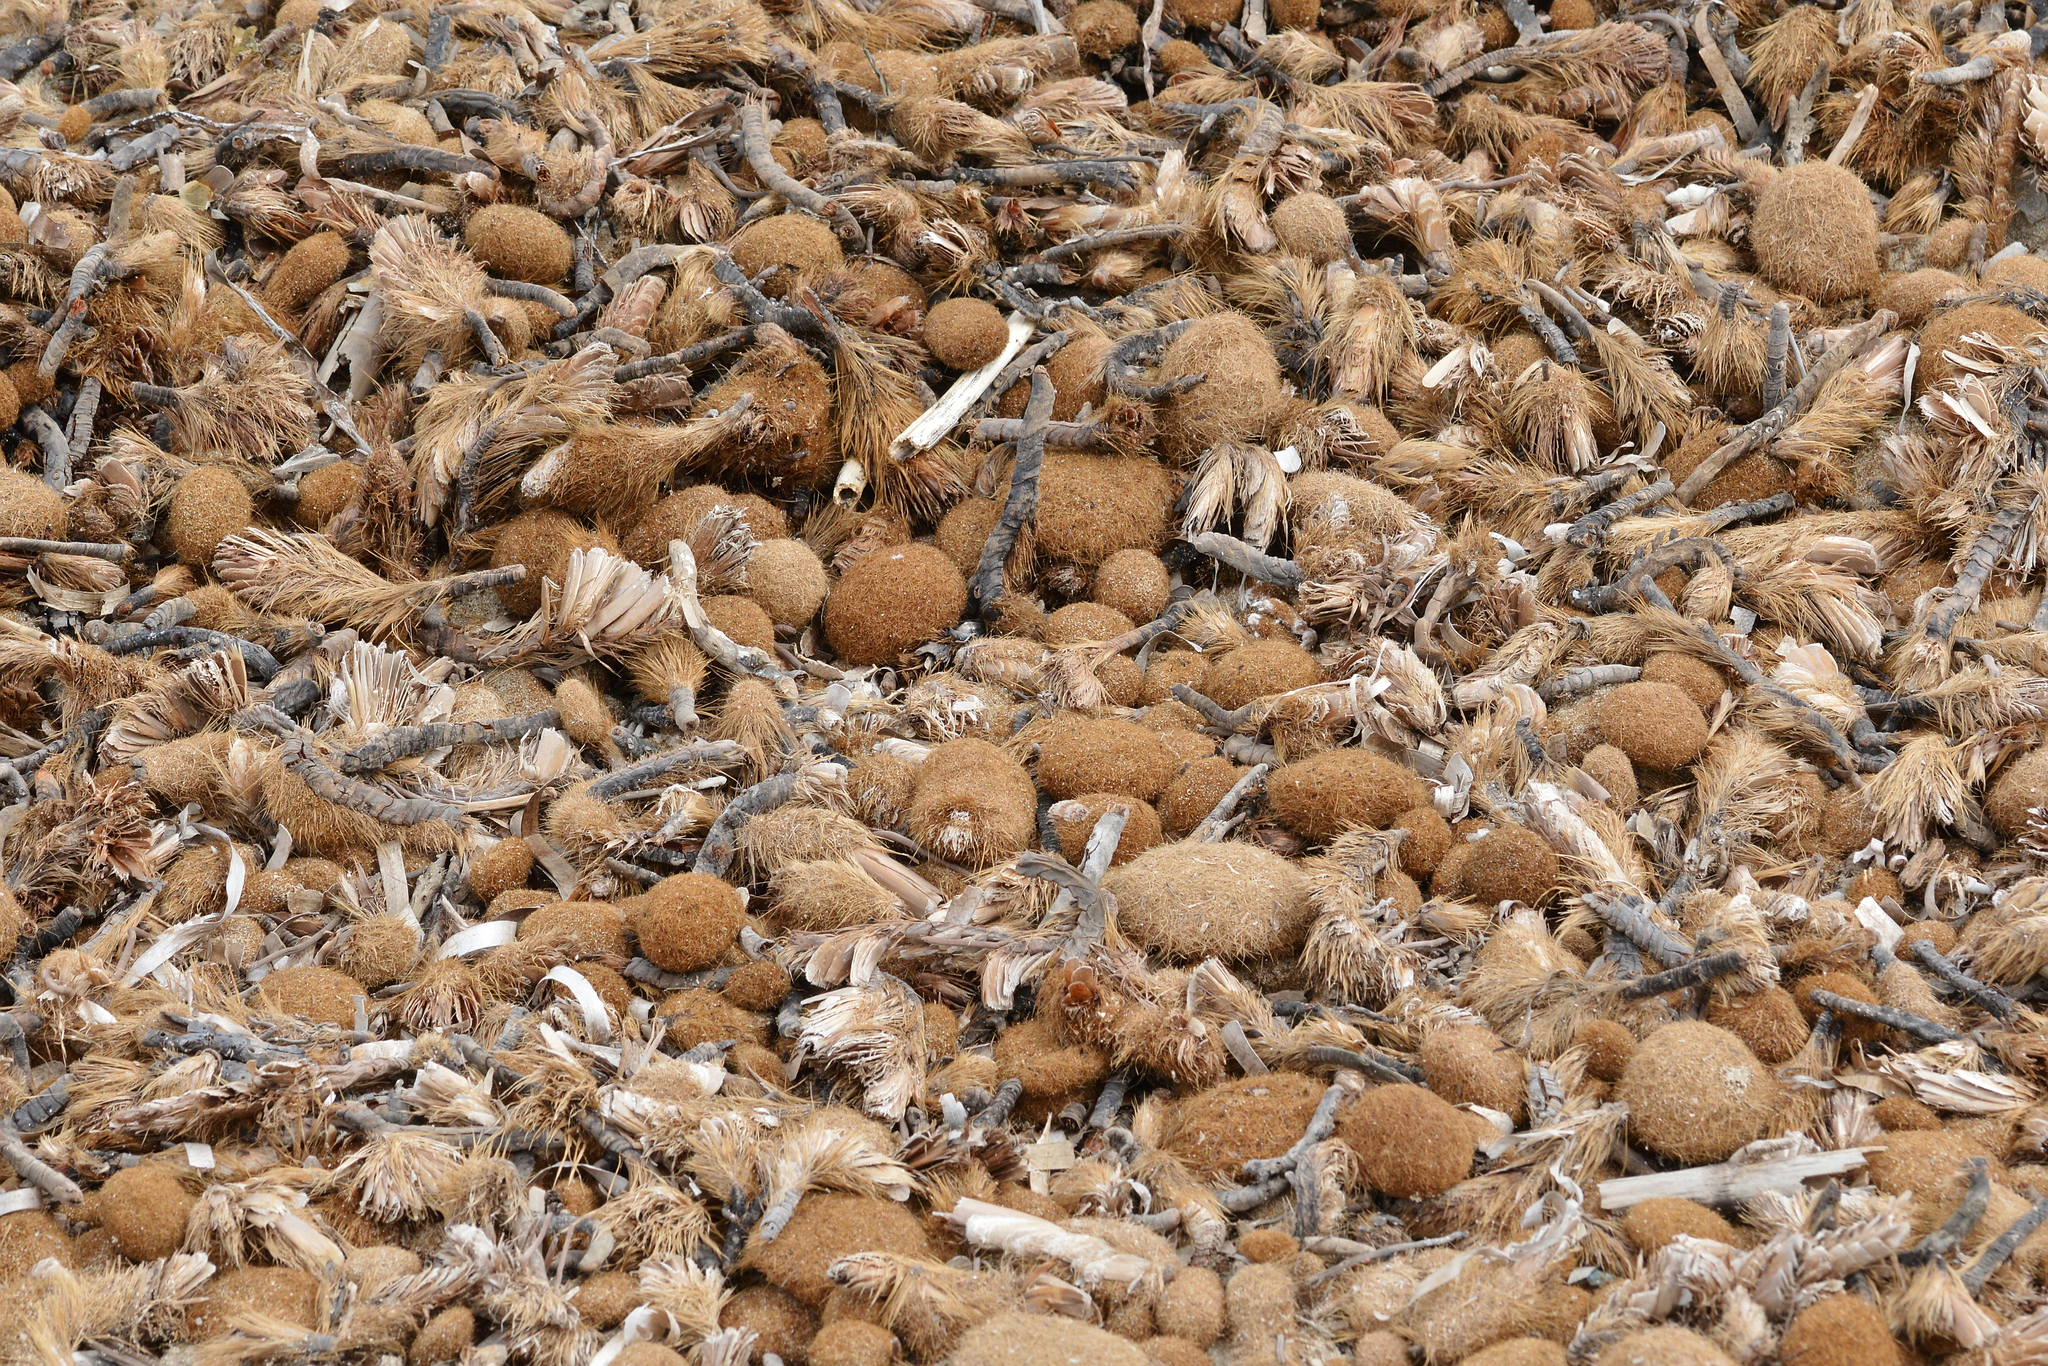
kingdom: Plantae
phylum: Tracheophyta
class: Liliopsida
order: Alismatales
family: Posidoniaceae
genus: Posidonia
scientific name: Posidonia oceanica
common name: Mediterranean tapeweed
